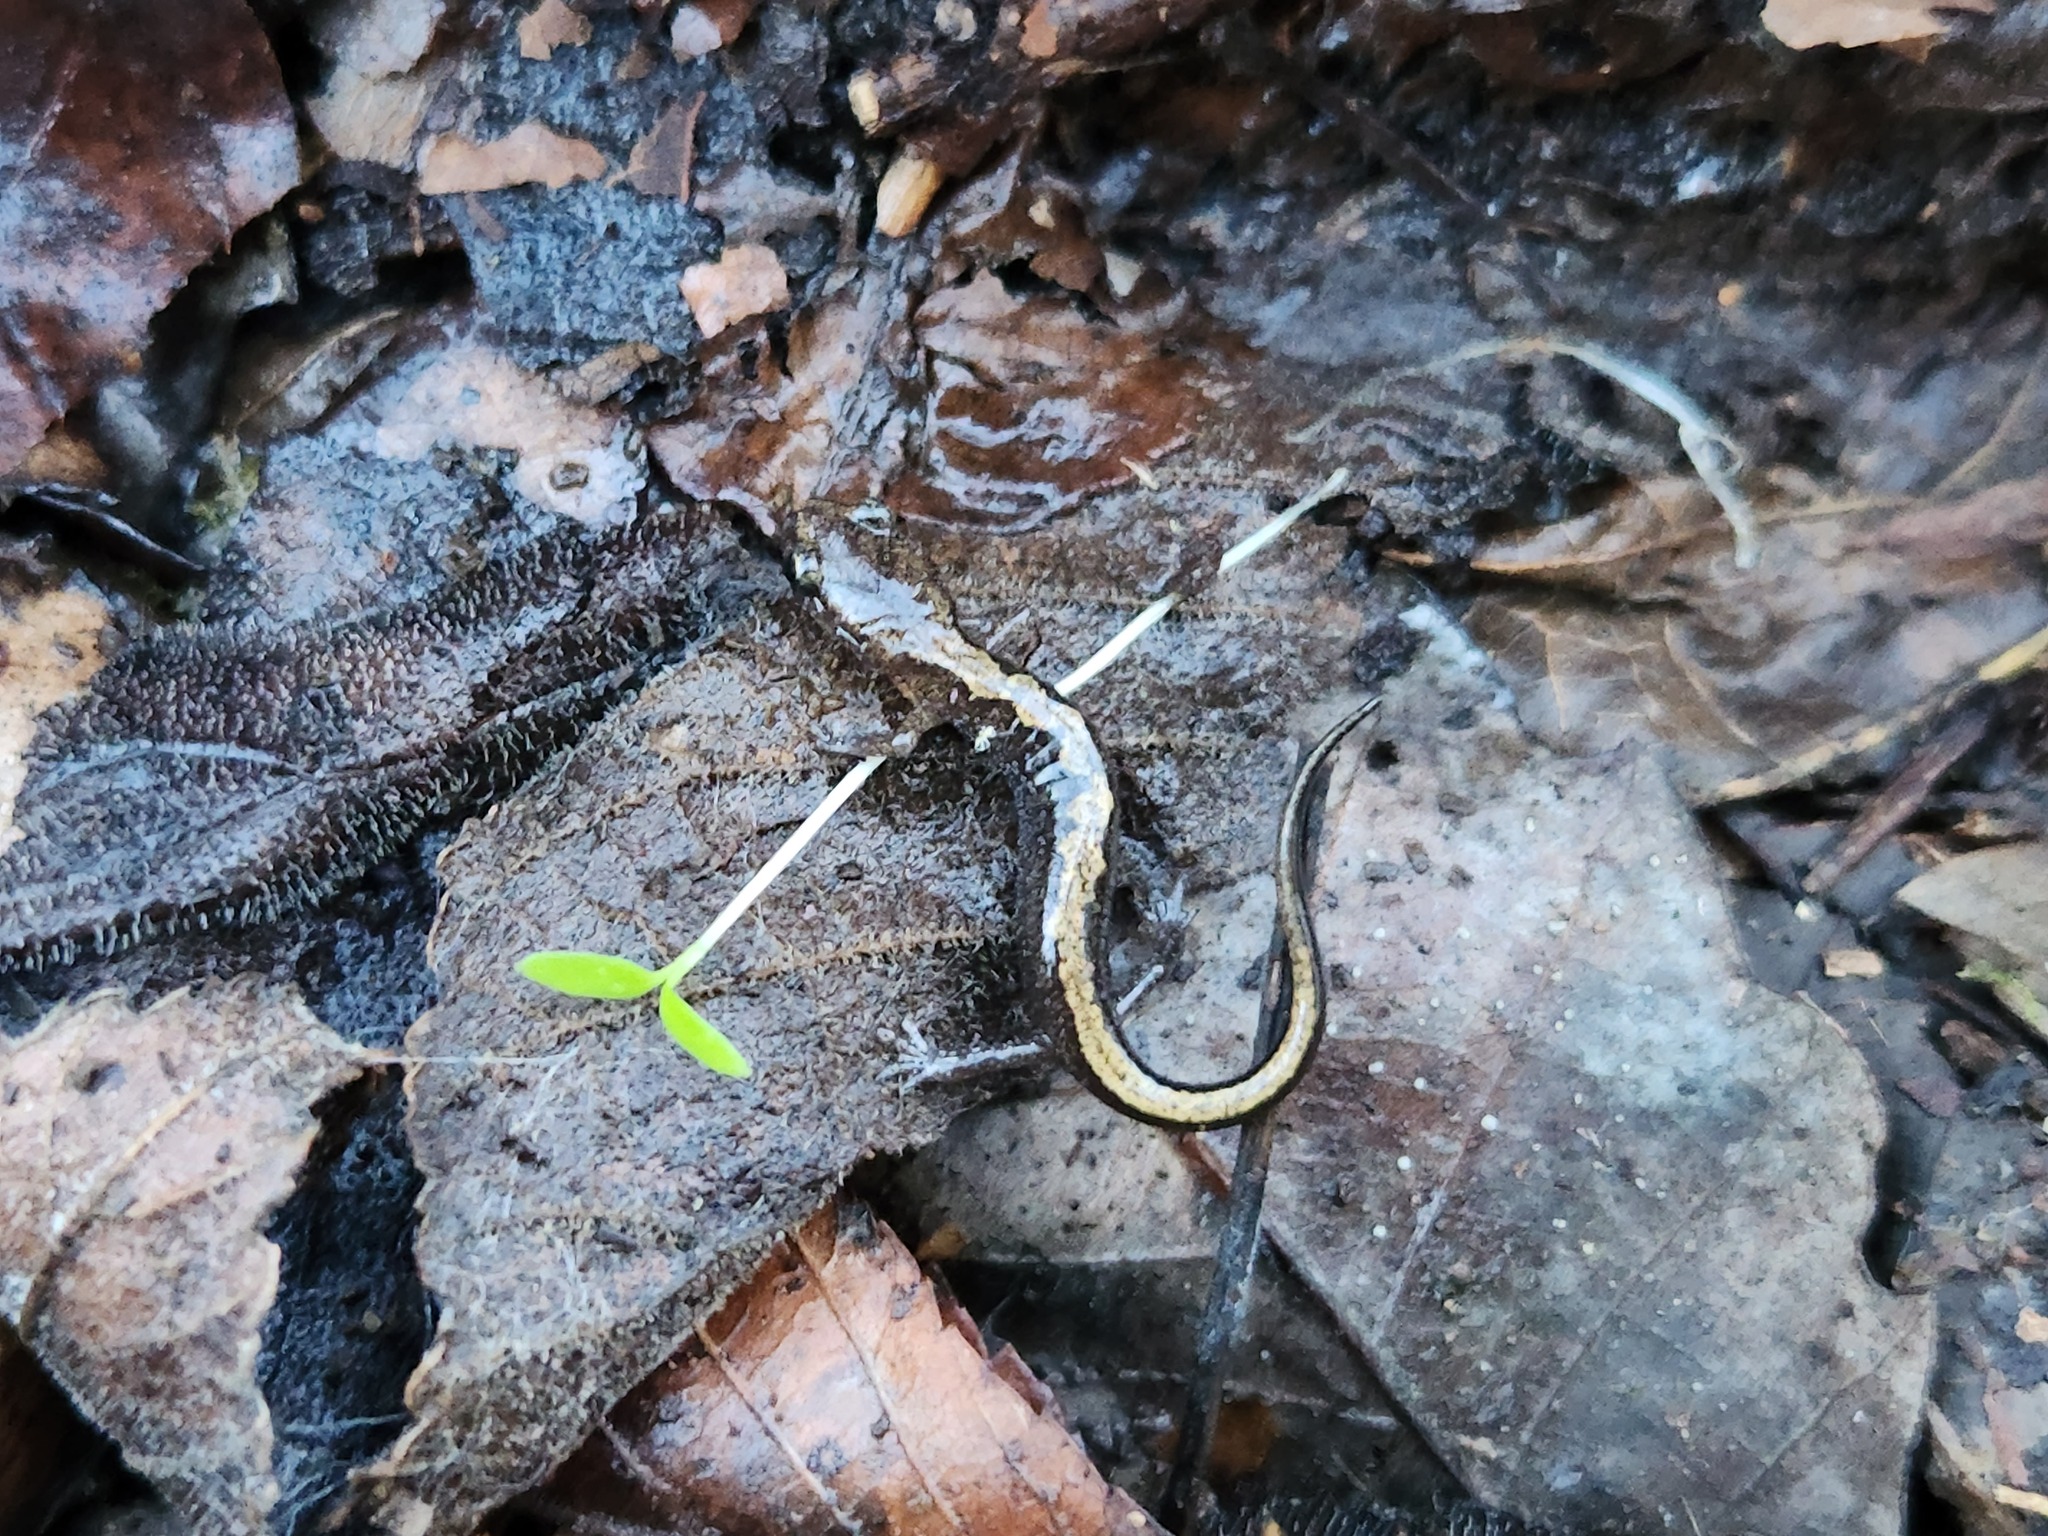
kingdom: Animalia
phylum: Chordata
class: Amphibia
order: Caudata
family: Plethodontidae
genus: Plethodon
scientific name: Plethodon dorsalis
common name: Northern zigzag salamander
